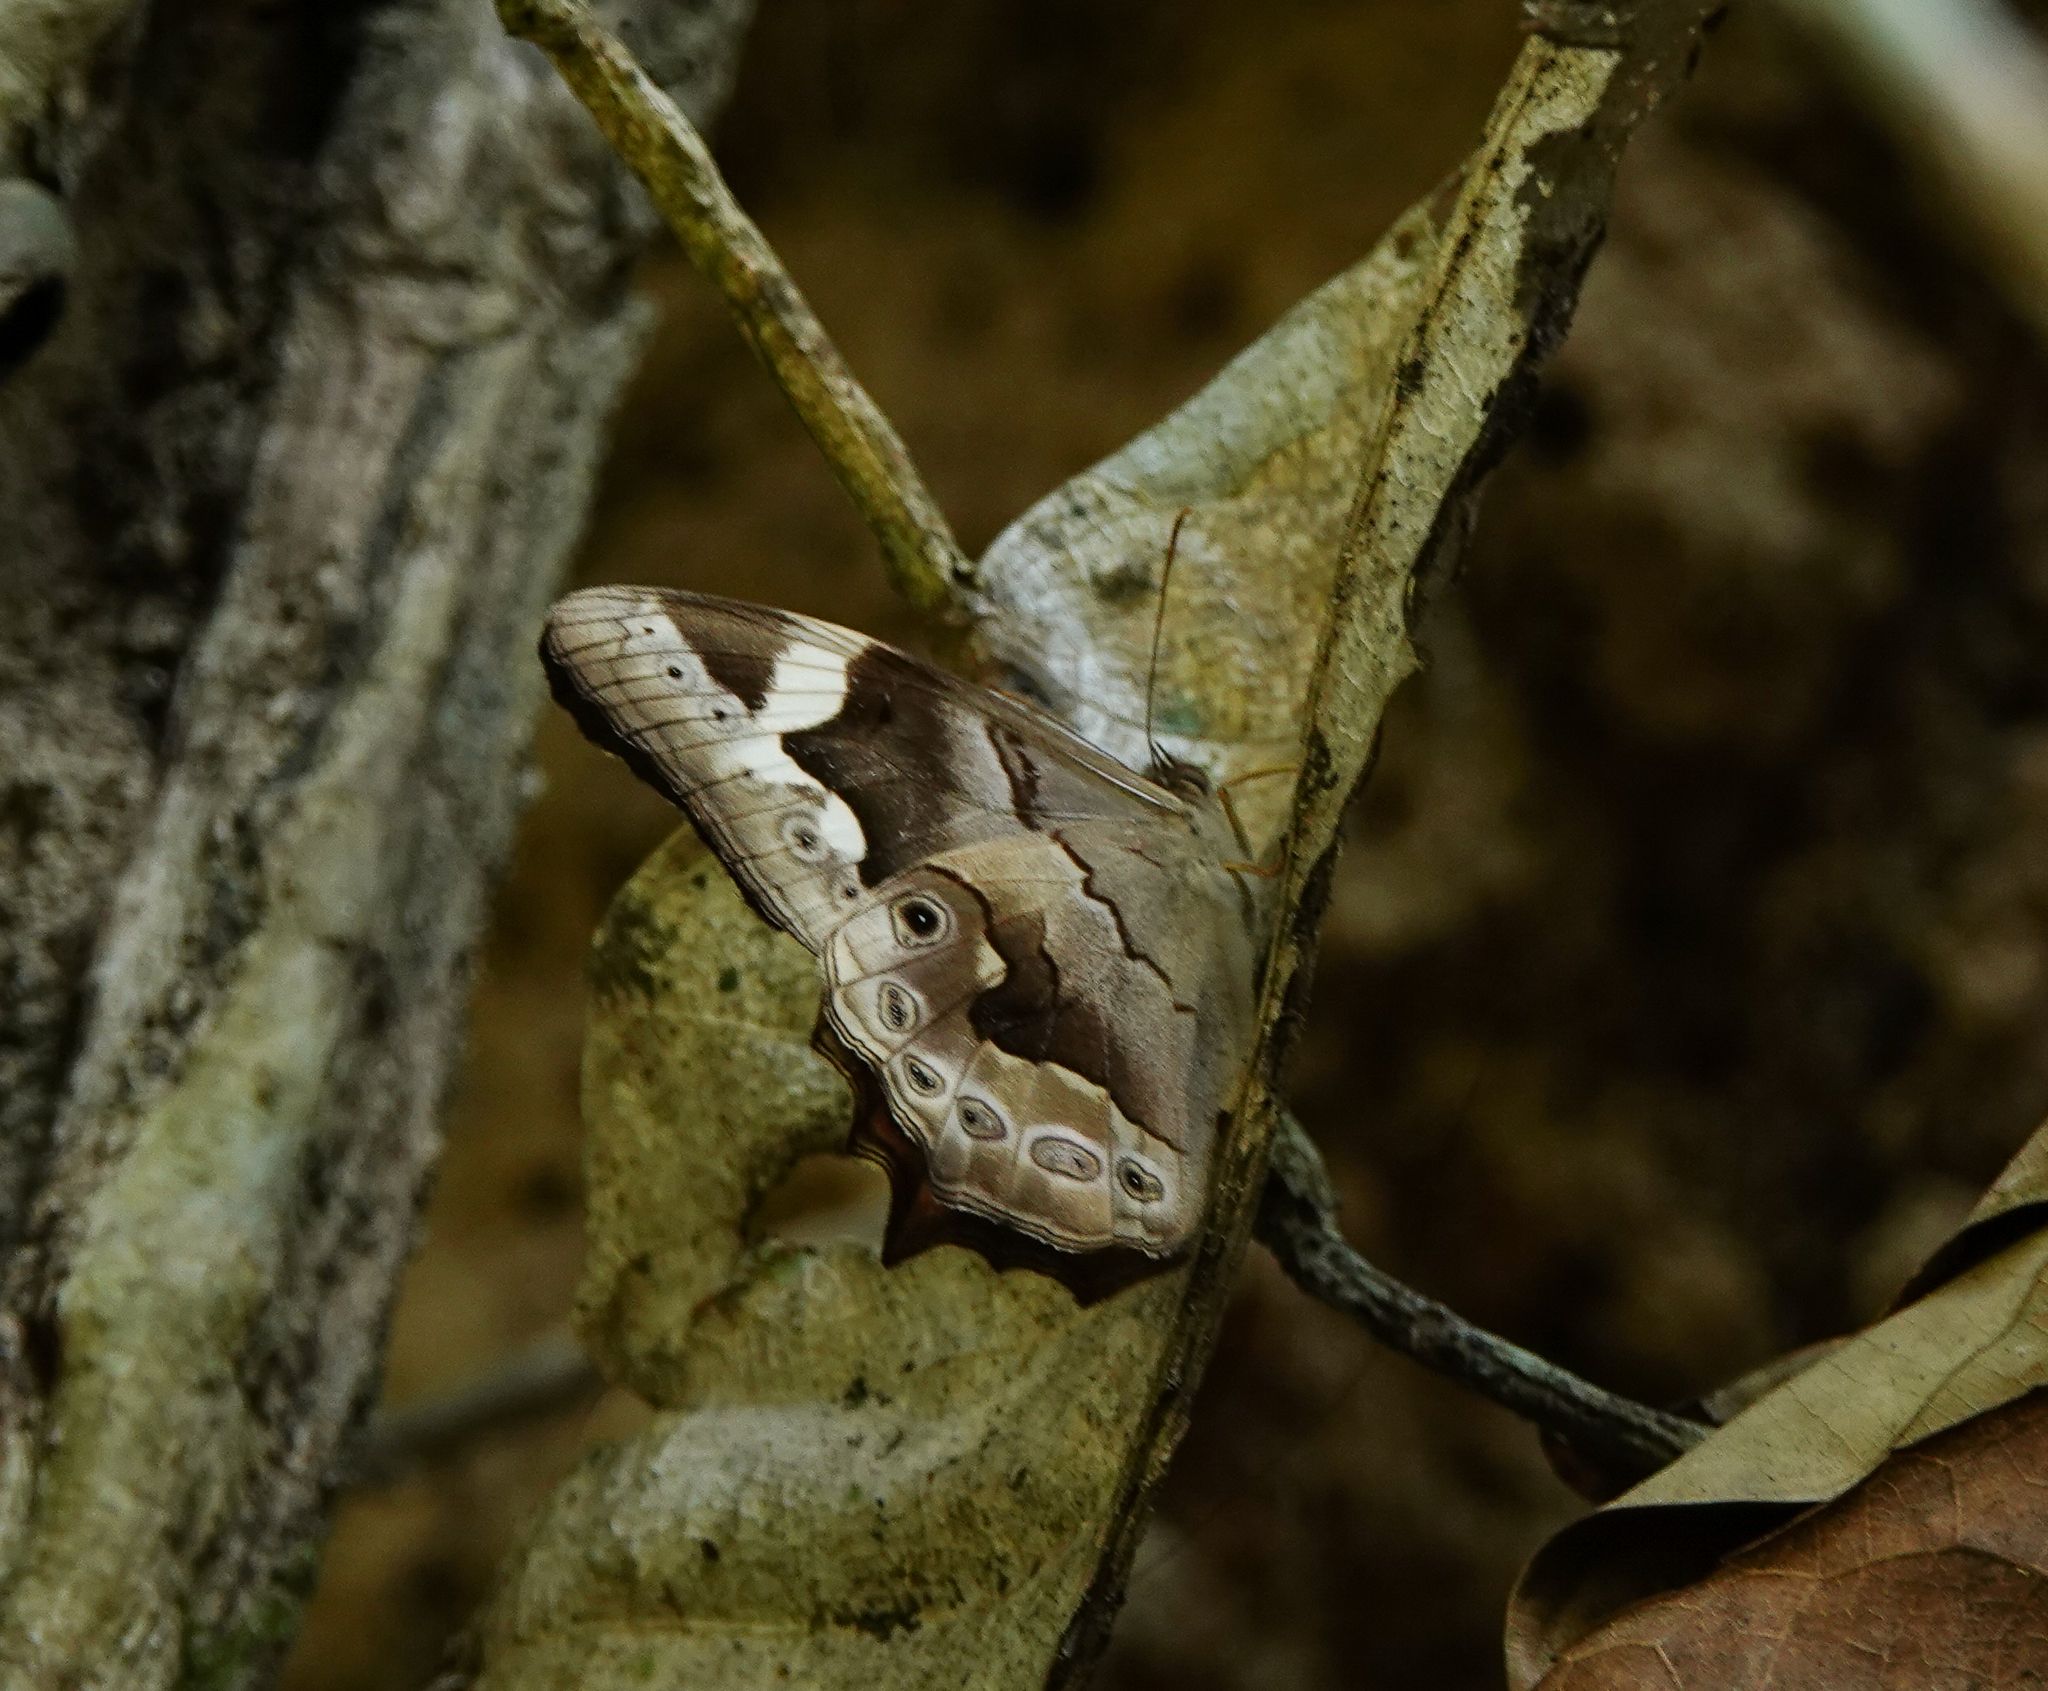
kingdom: Animalia
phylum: Arthropoda
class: Insecta
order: Lepidoptera
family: Nymphalidae
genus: Lethe
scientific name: Lethe chandica
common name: Angled red forester
